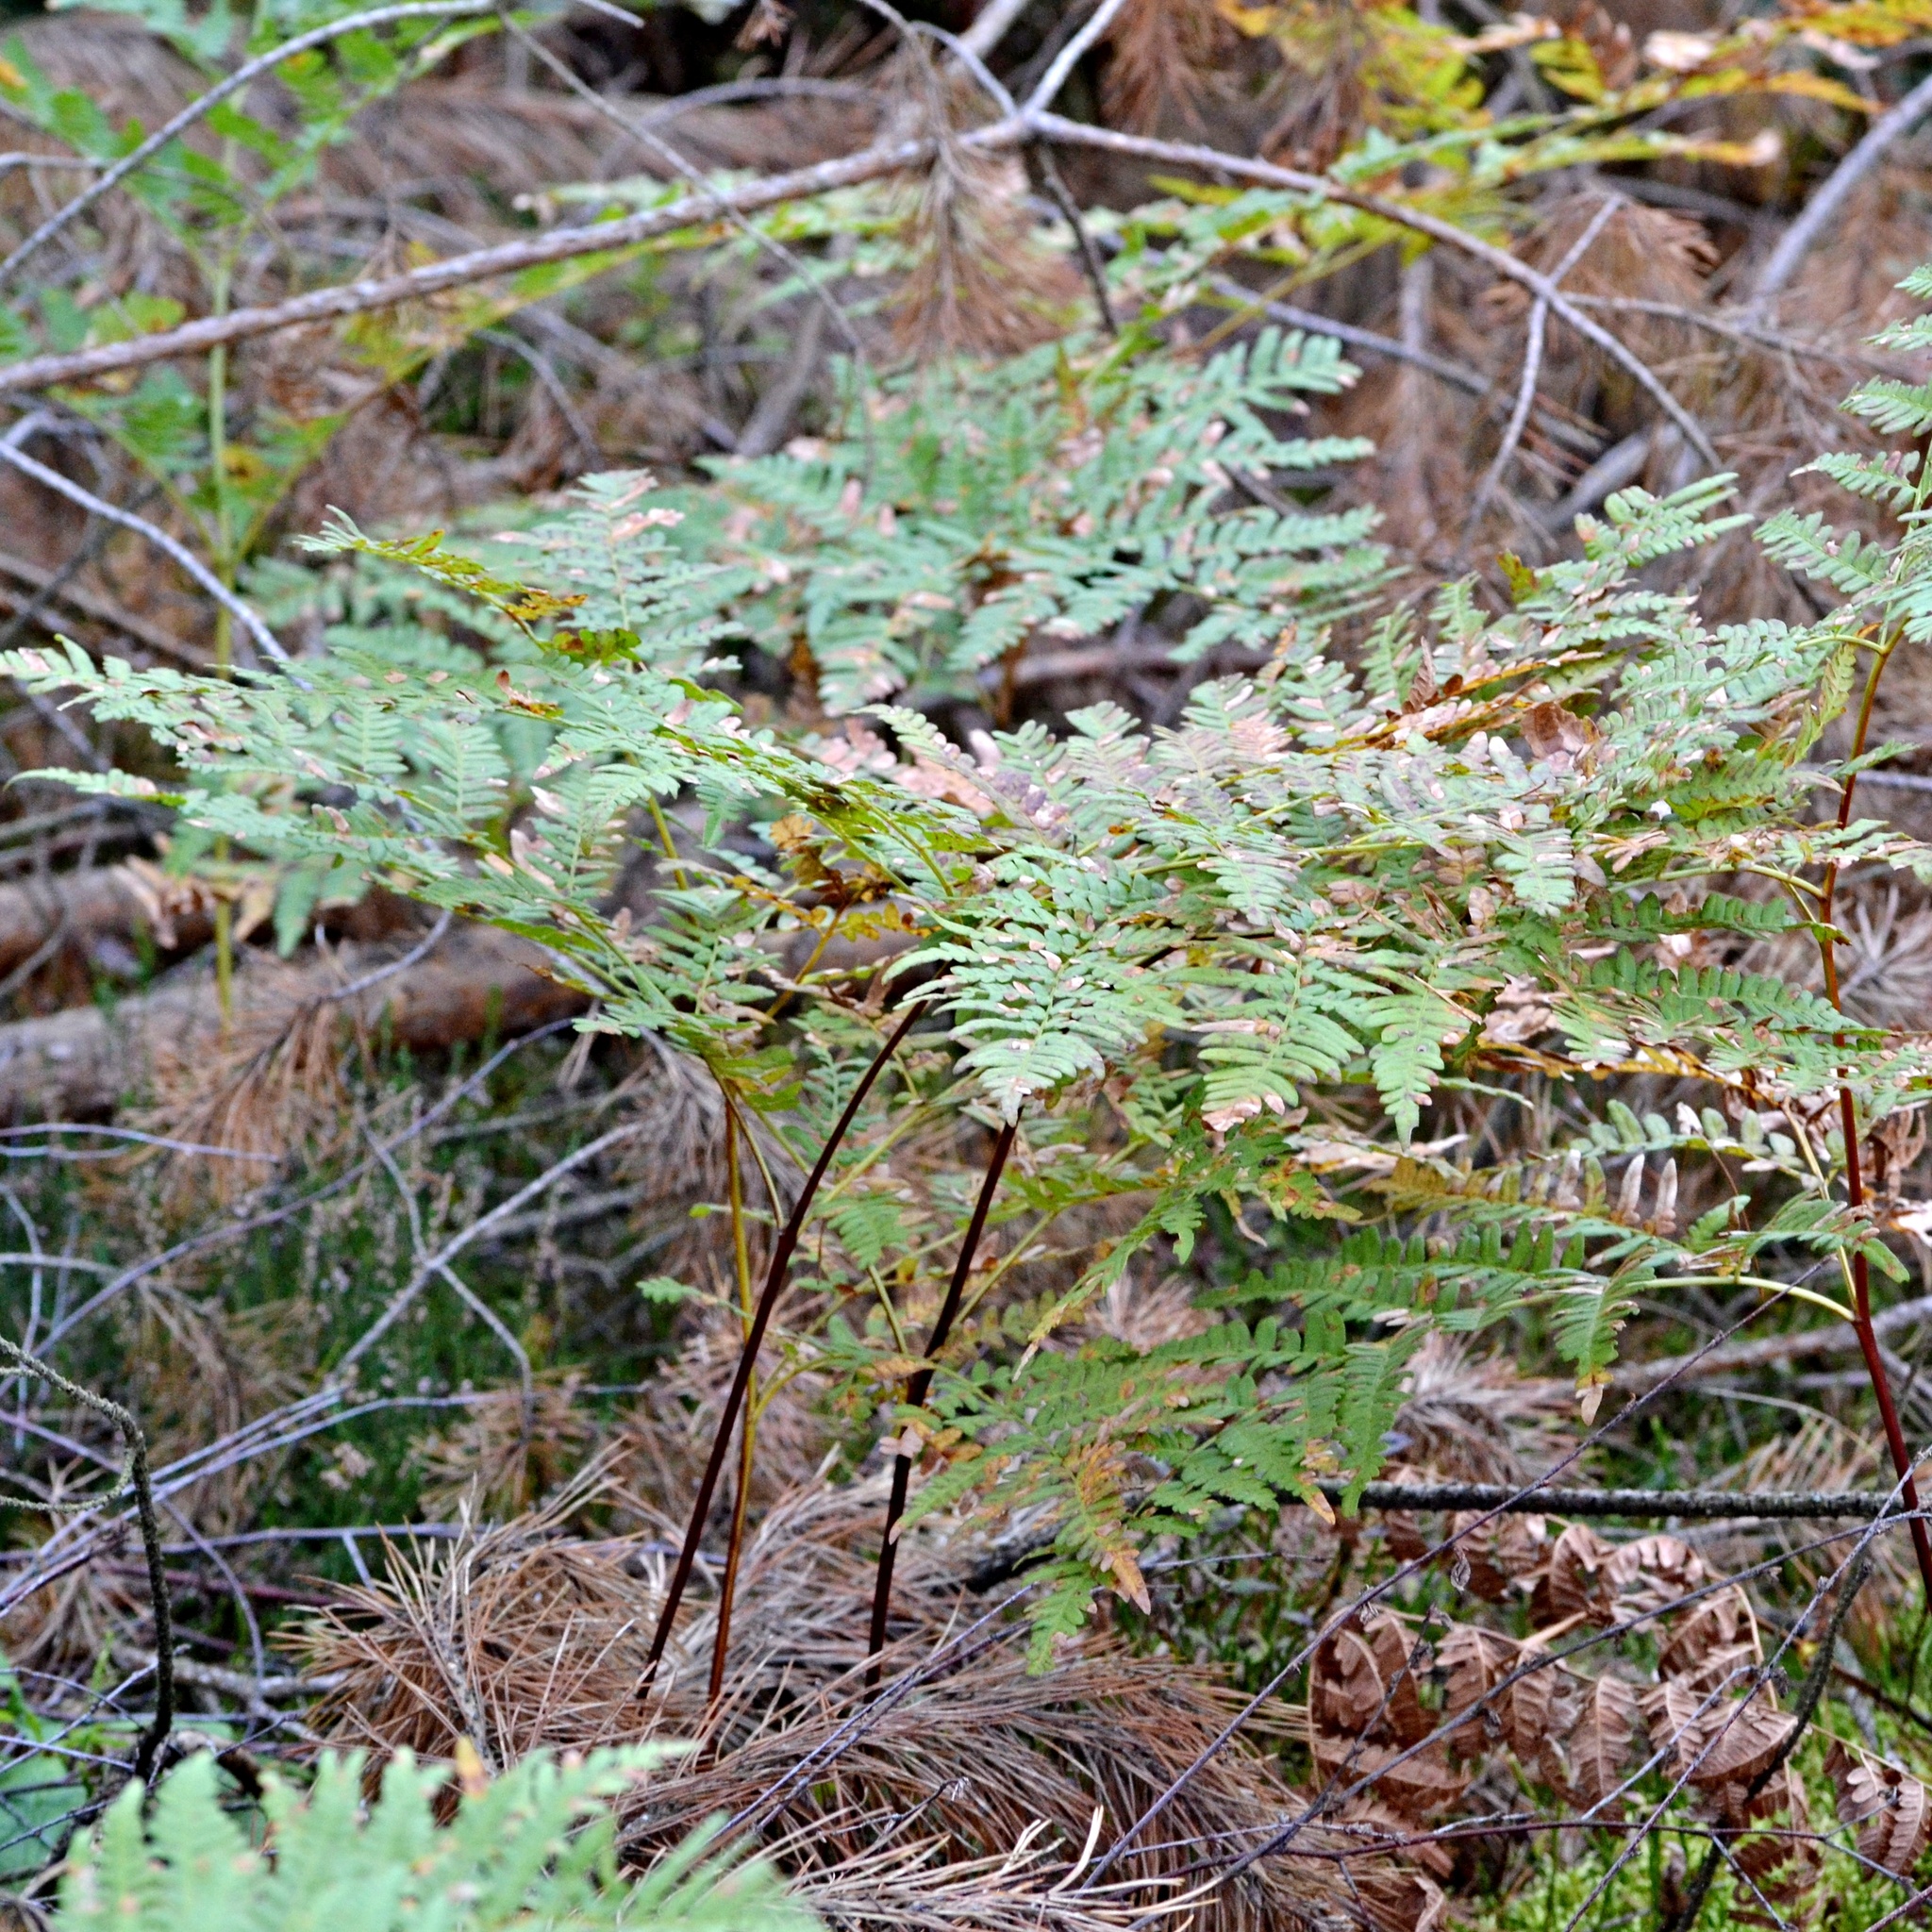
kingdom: Plantae
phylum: Tracheophyta
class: Polypodiopsida
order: Polypodiales
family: Dennstaedtiaceae
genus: Pteridium
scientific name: Pteridium aquilinum
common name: Bracken
